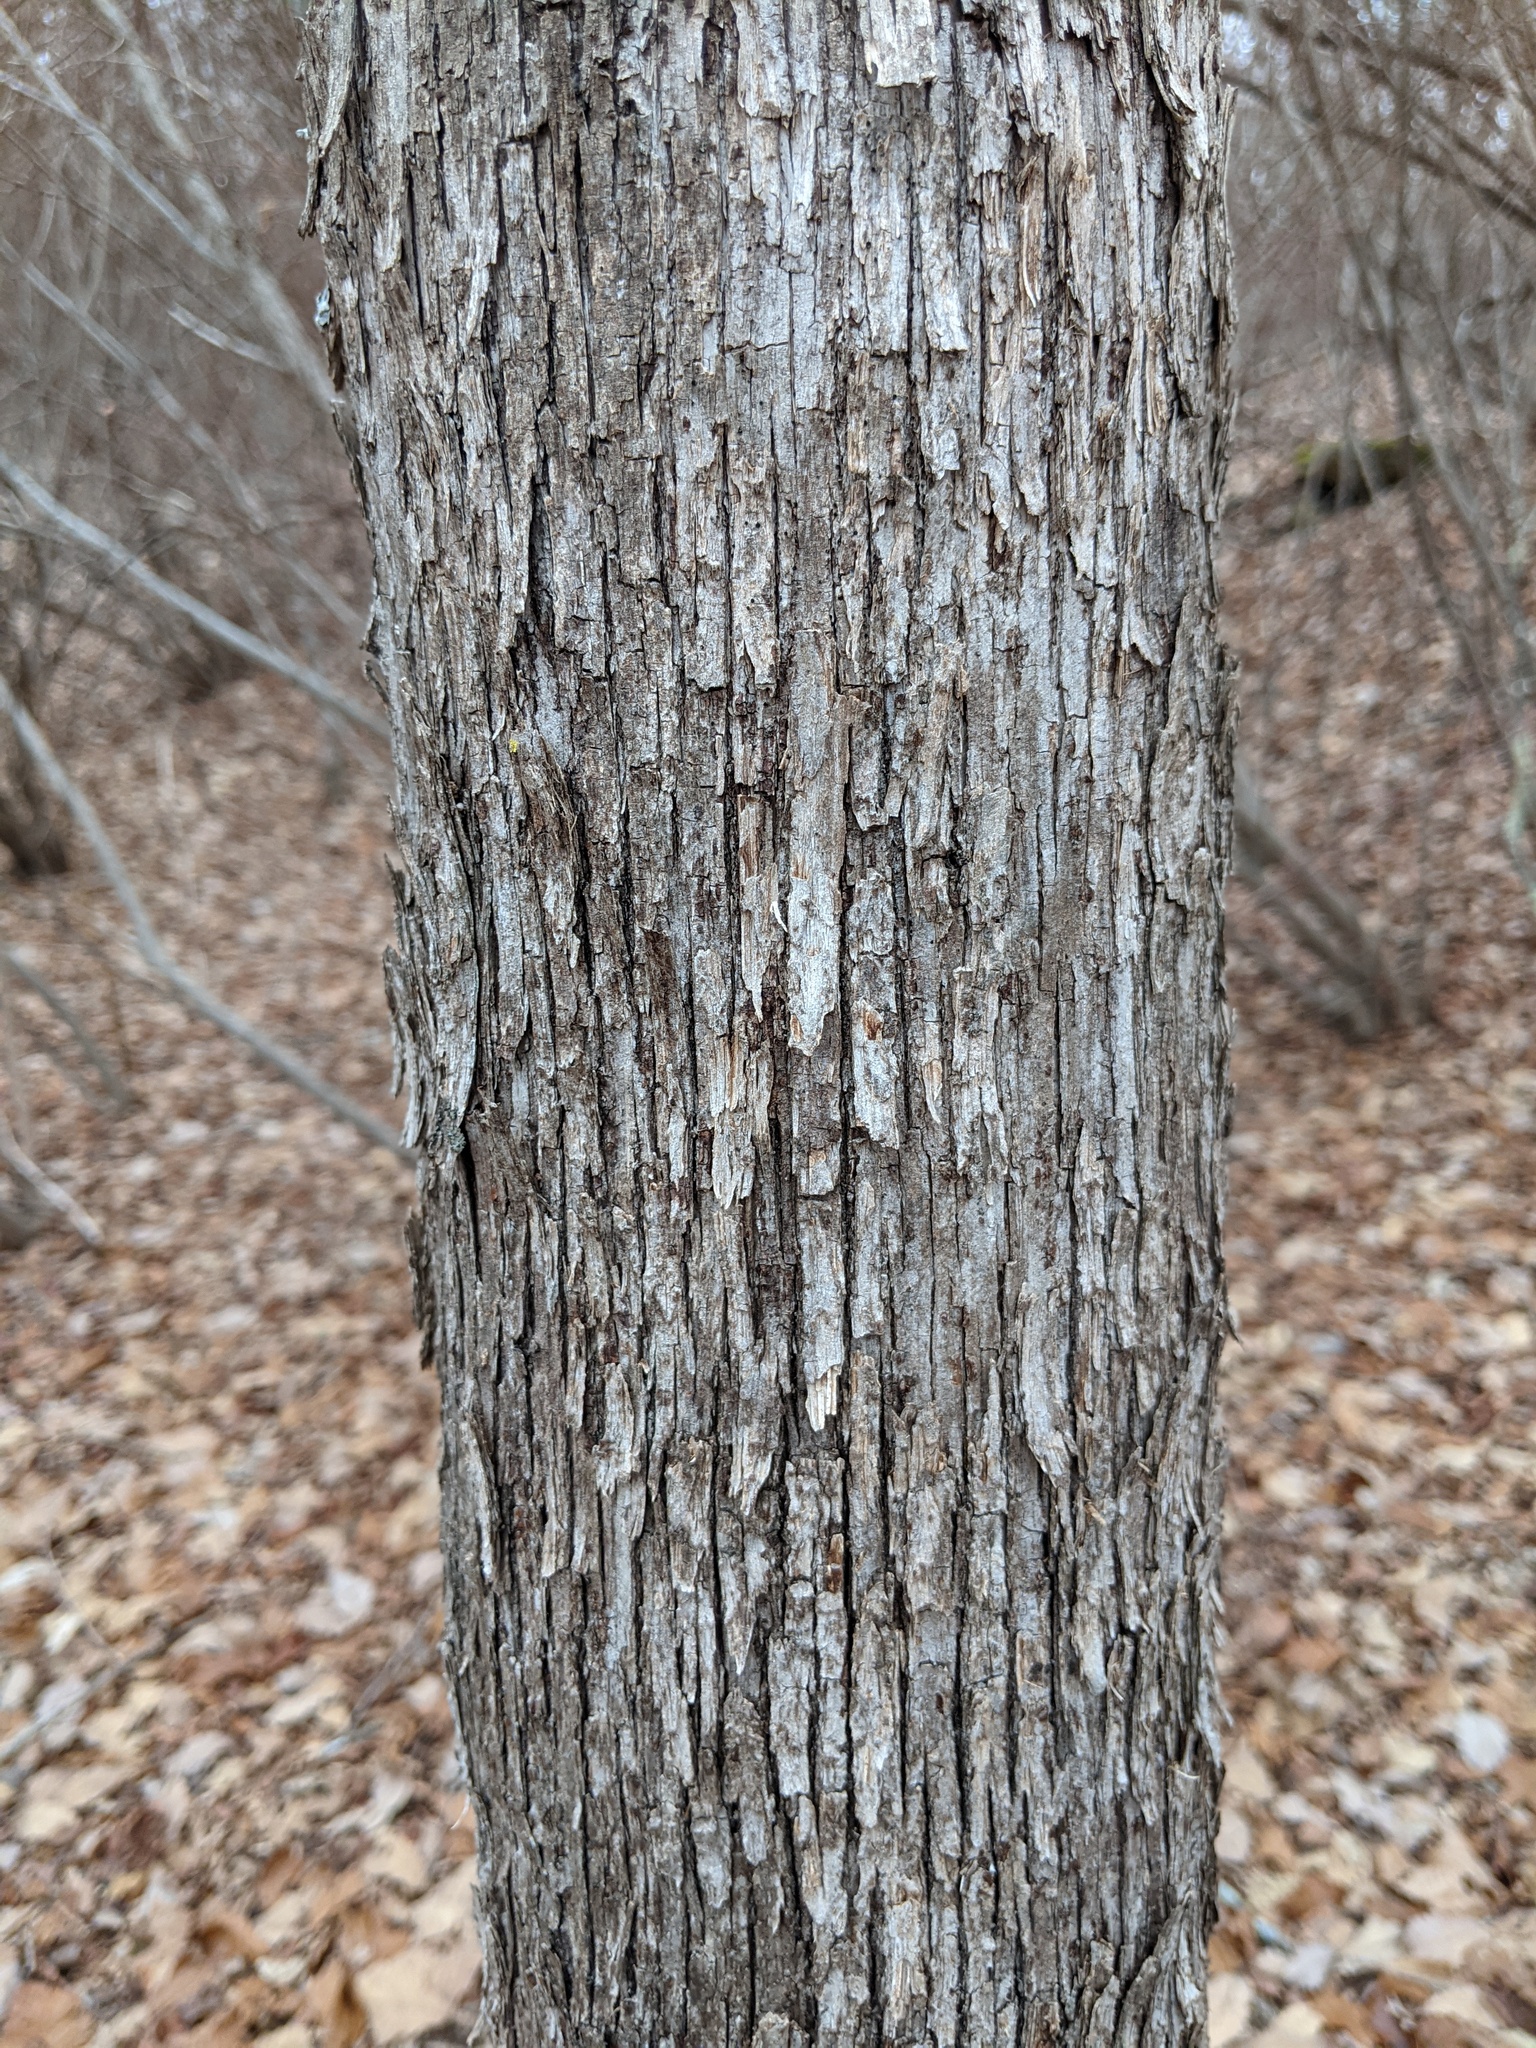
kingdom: Plantae
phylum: Tracheophyta
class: Magnoliopsida
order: Fagales
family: Betulaceae
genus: Ostrya
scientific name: Ostrya virginiana
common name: Ironwood
